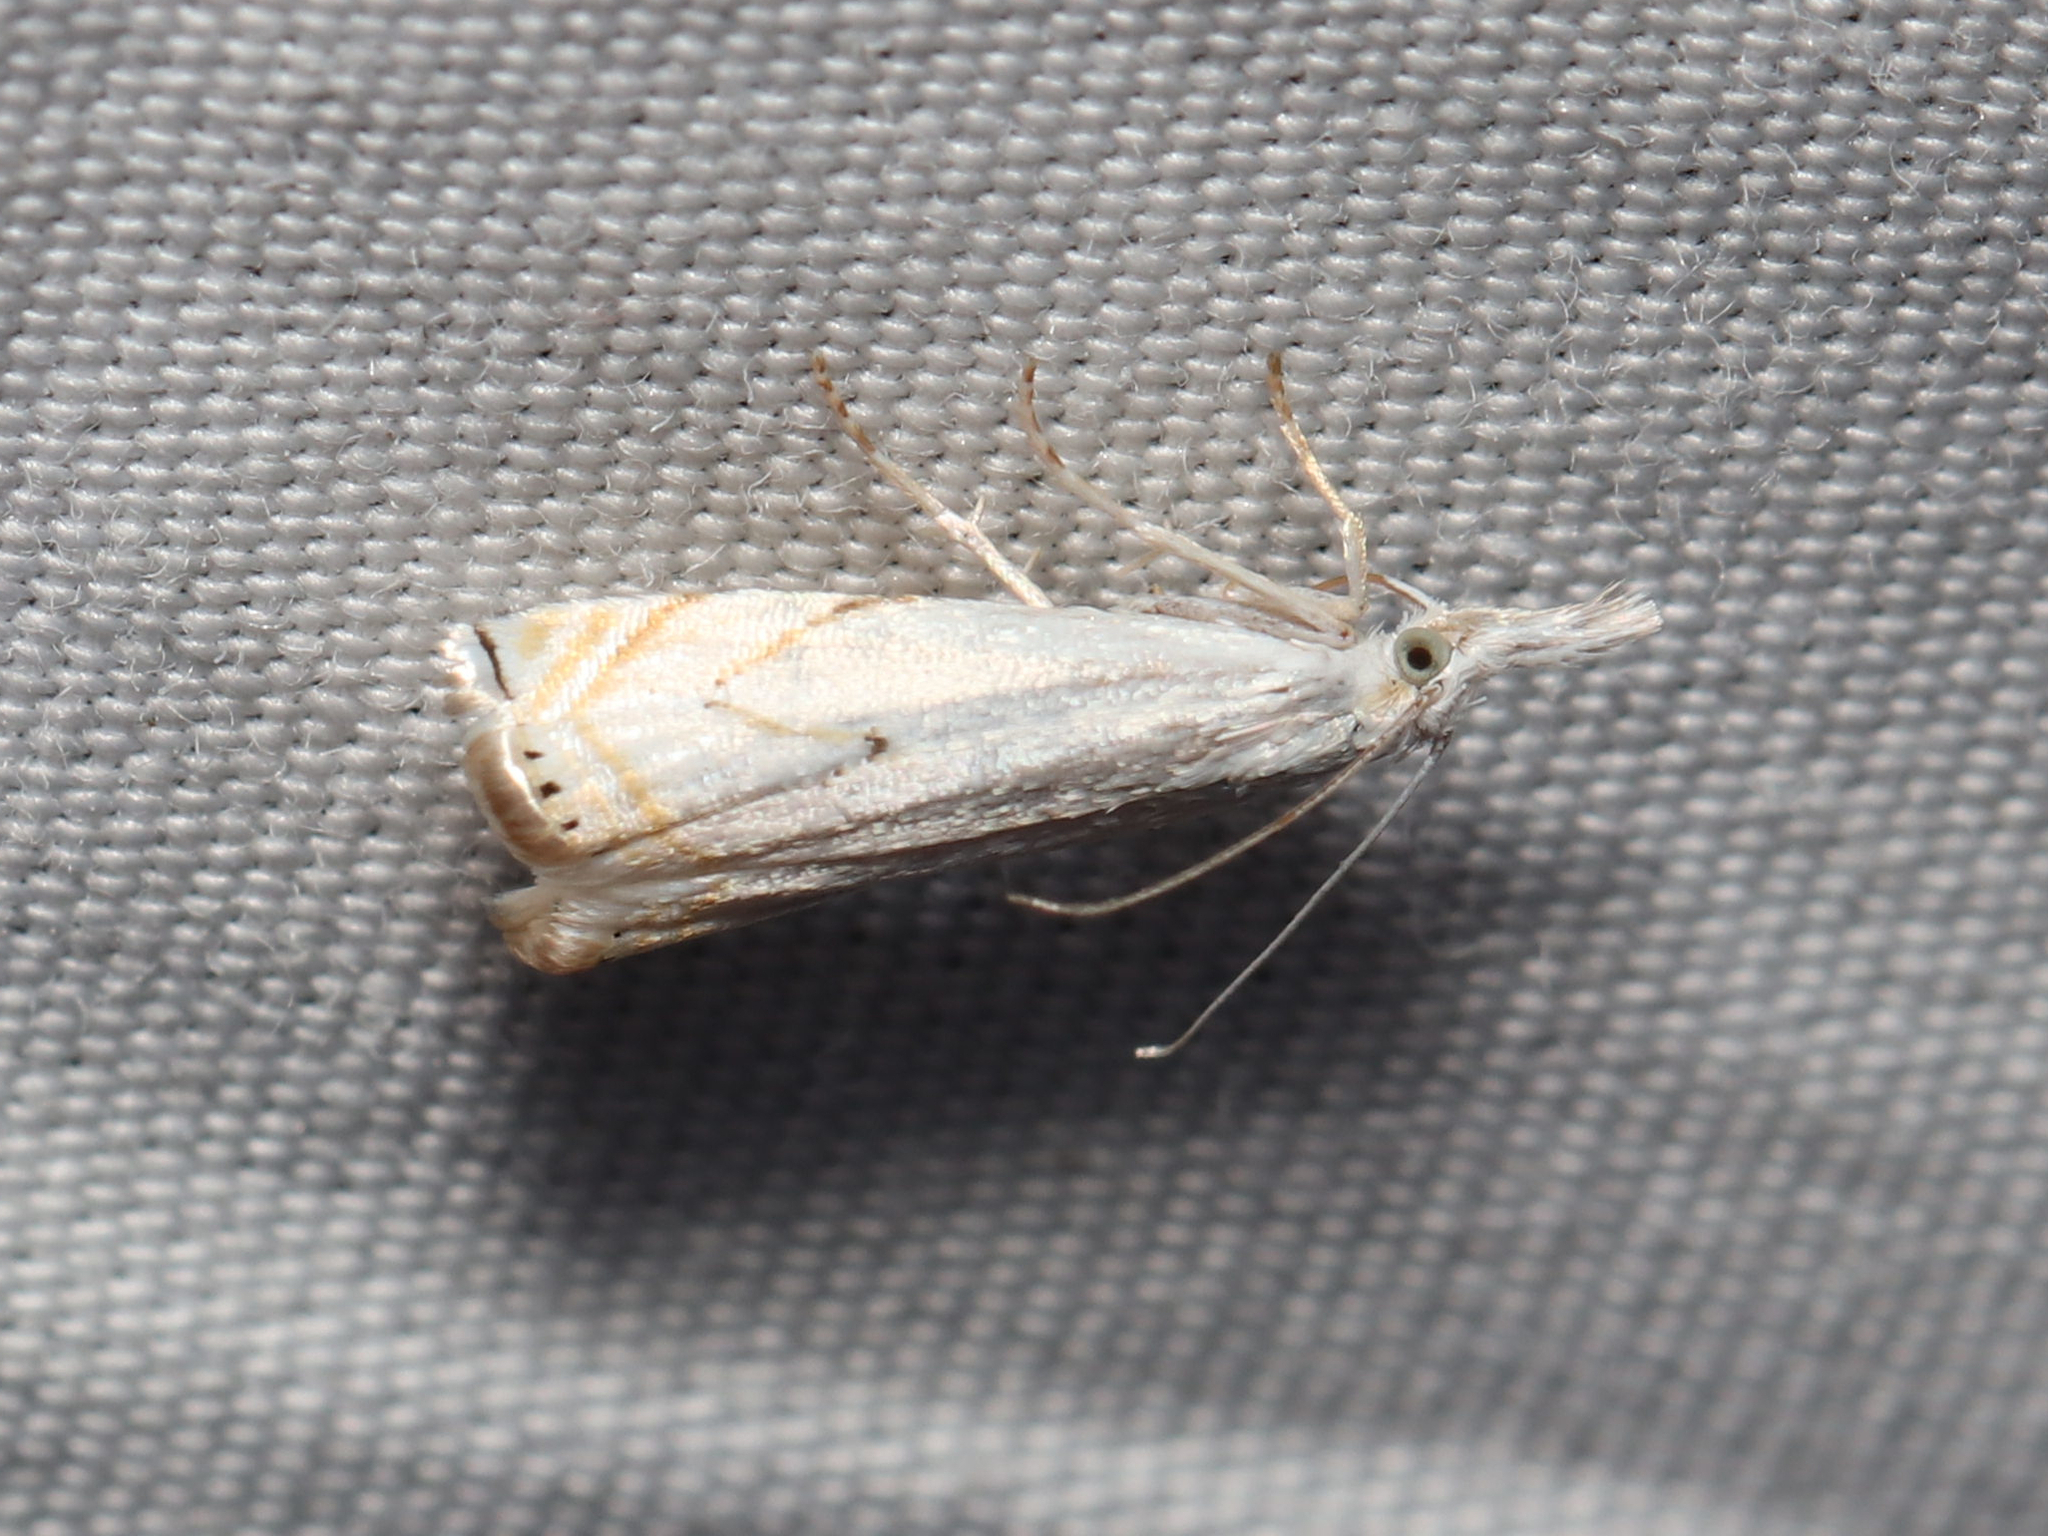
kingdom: Animalia
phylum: Arthropoda
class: Insecta
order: Lepidoptera
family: Crambidae
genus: Crambus
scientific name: Crambus albellus
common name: Small white grass-veneer
